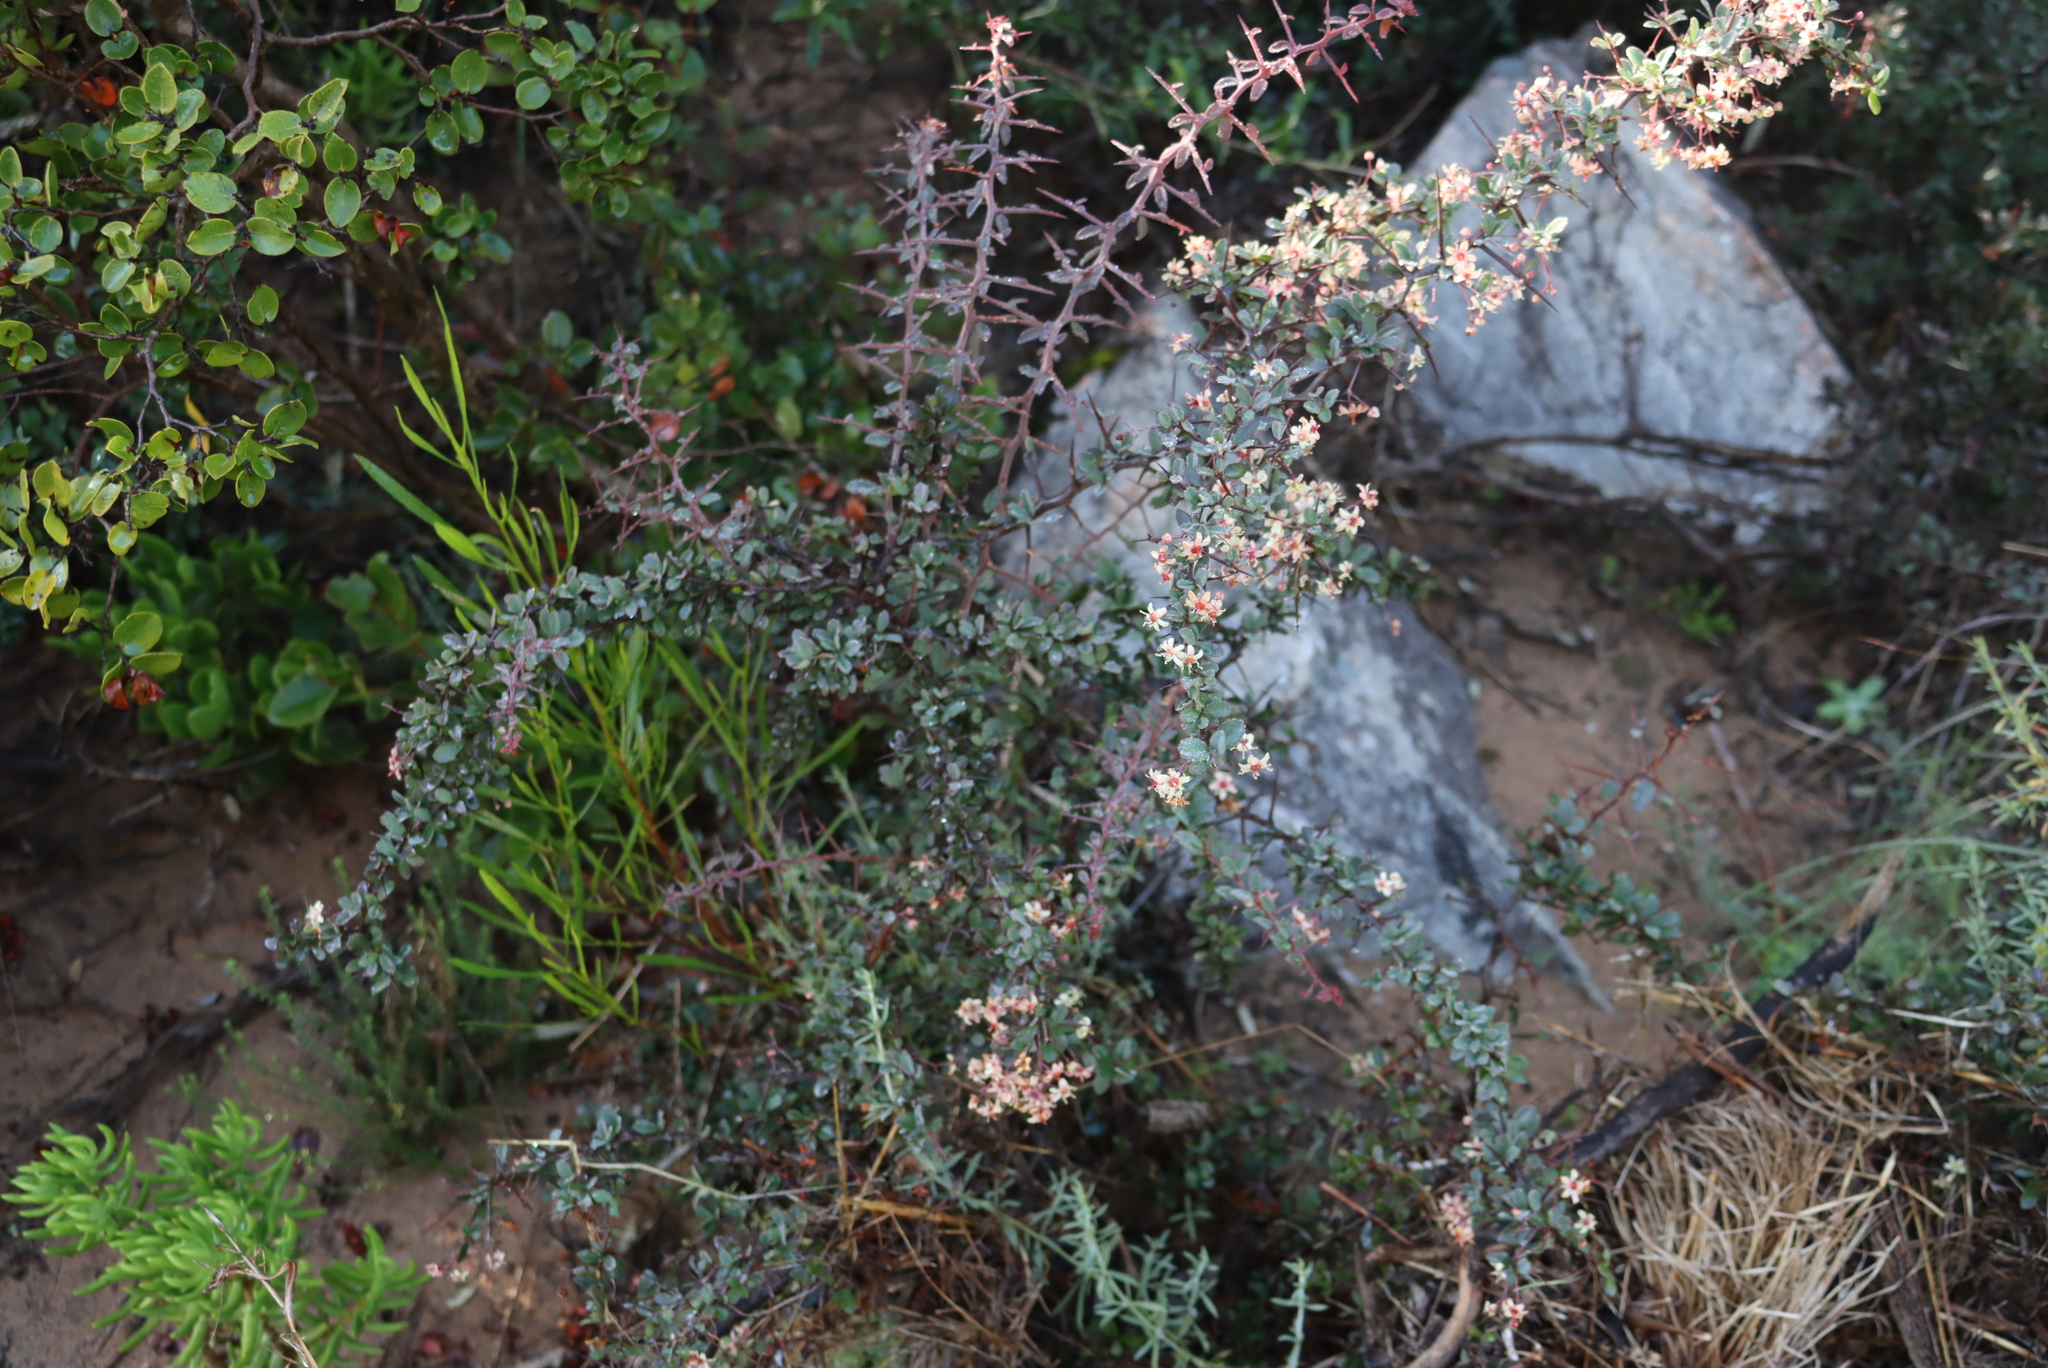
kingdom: Plantae
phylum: Tracheophyta
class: Magnoliopsida
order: Celastrales
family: Celastraceae
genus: Putterlickia
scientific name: Putterlickia pyracantha
